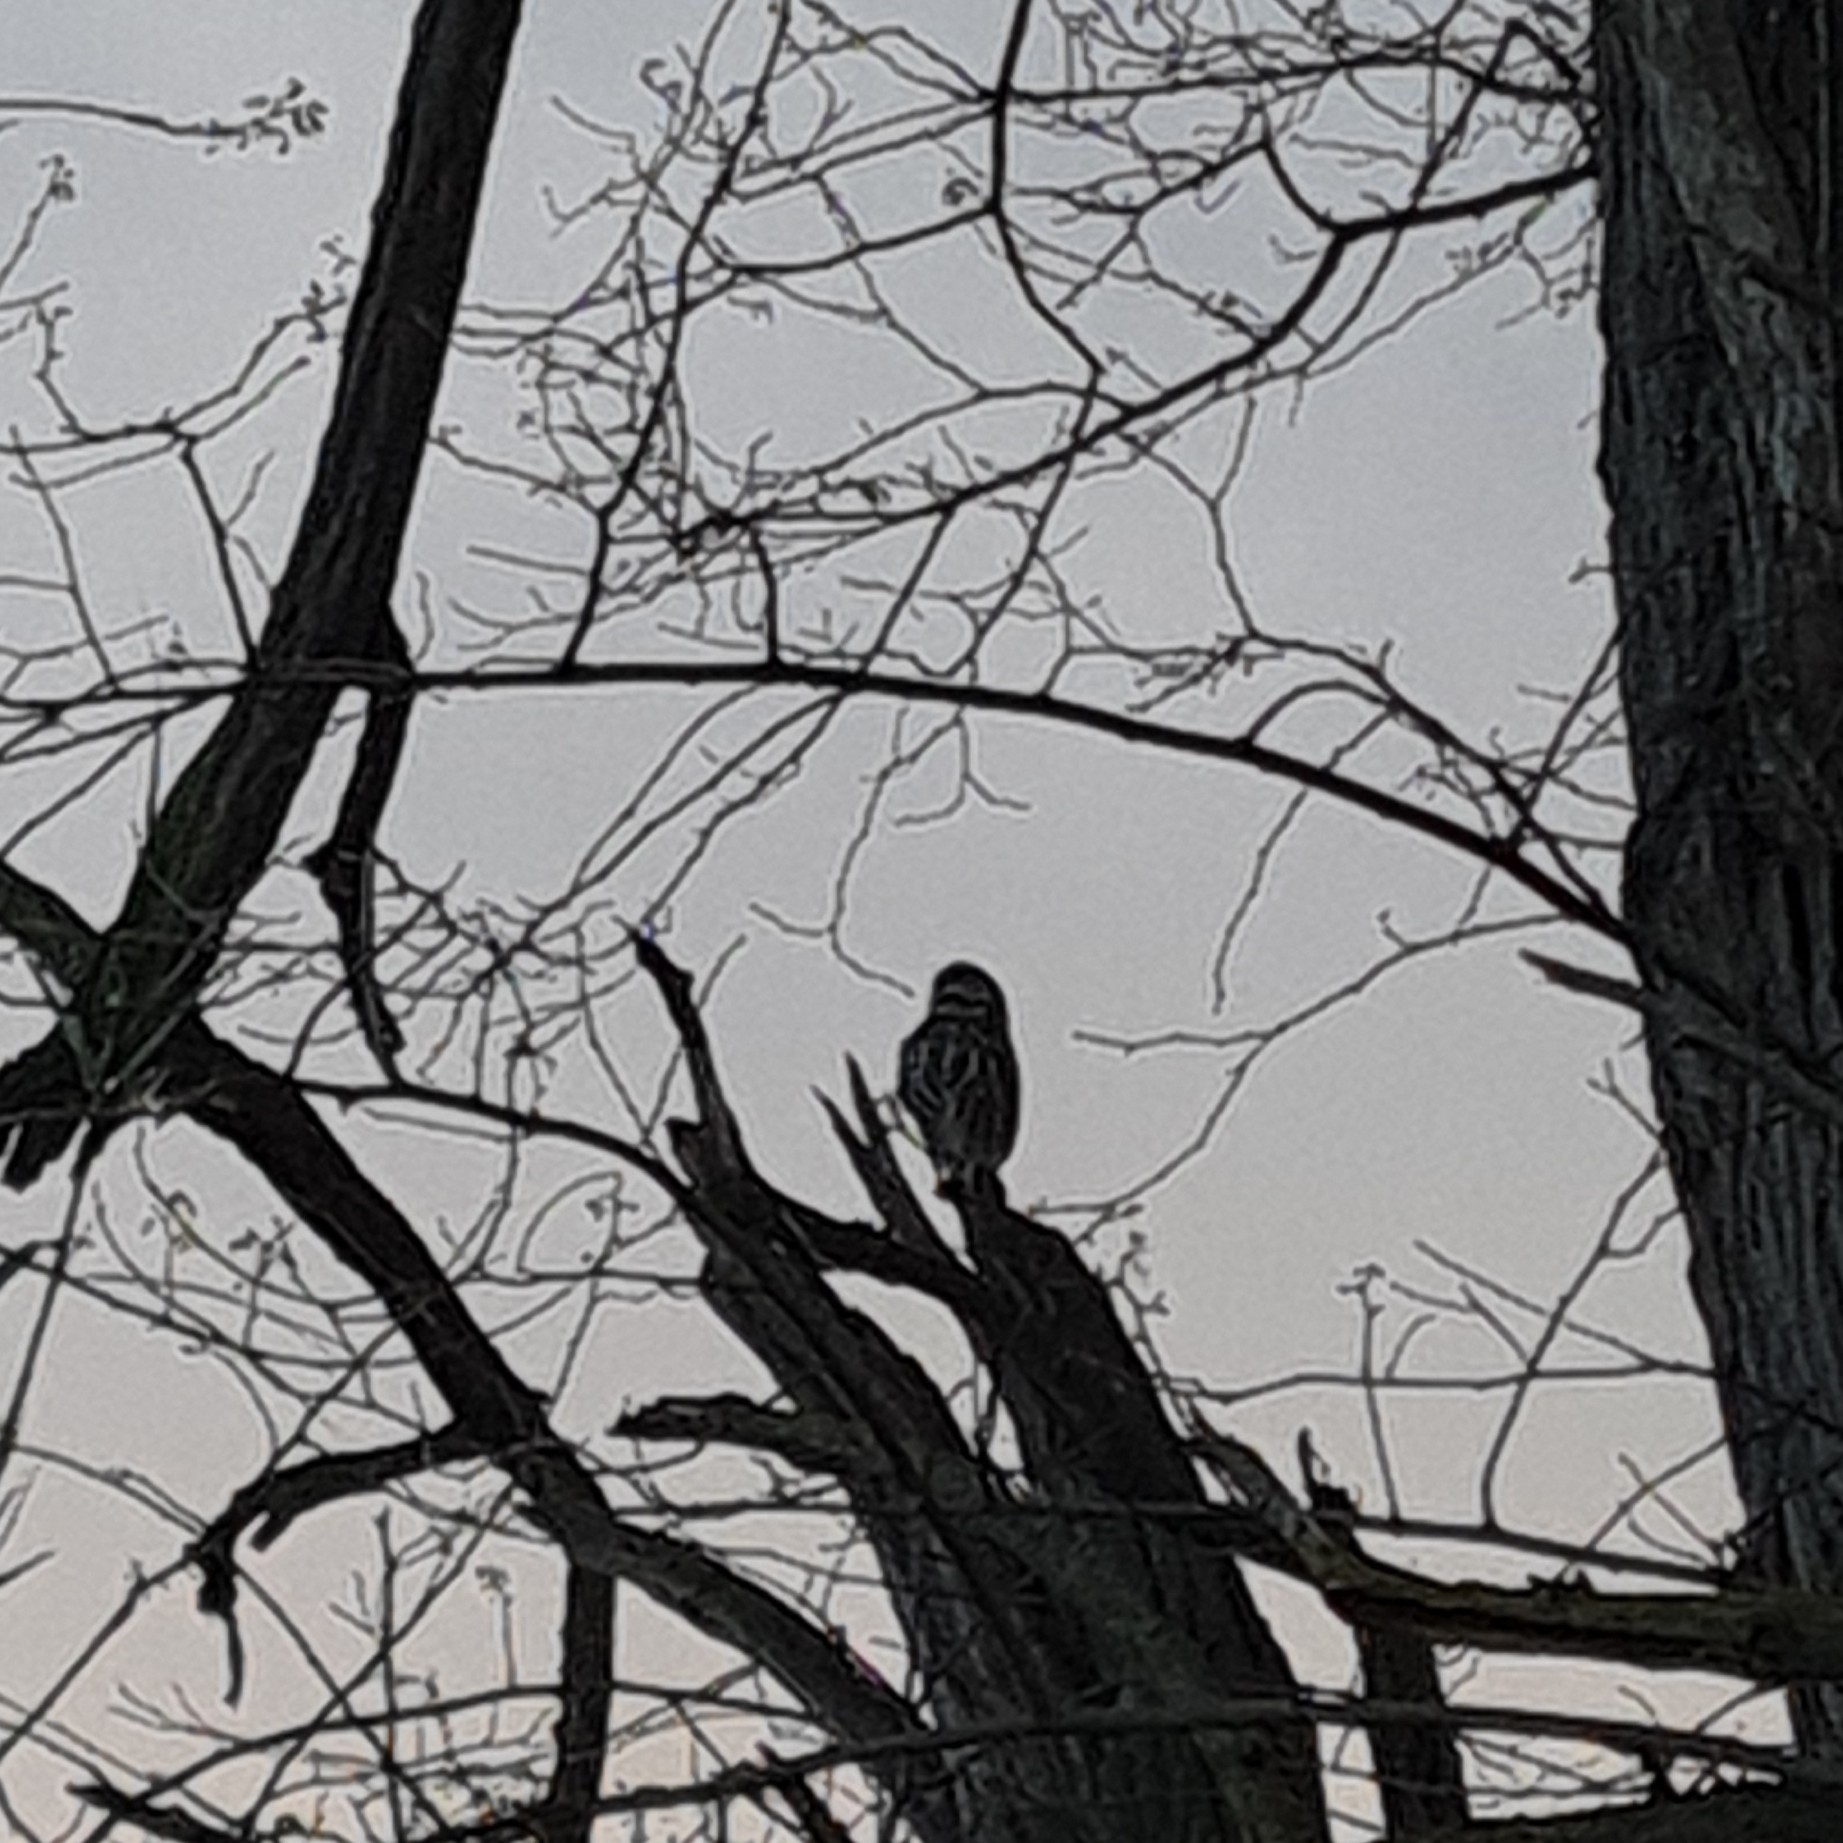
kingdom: Animalia
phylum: Chordata
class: Aves
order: Strigiformes
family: Strigidae
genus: Athene
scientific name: Athene noctua
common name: Little owl
